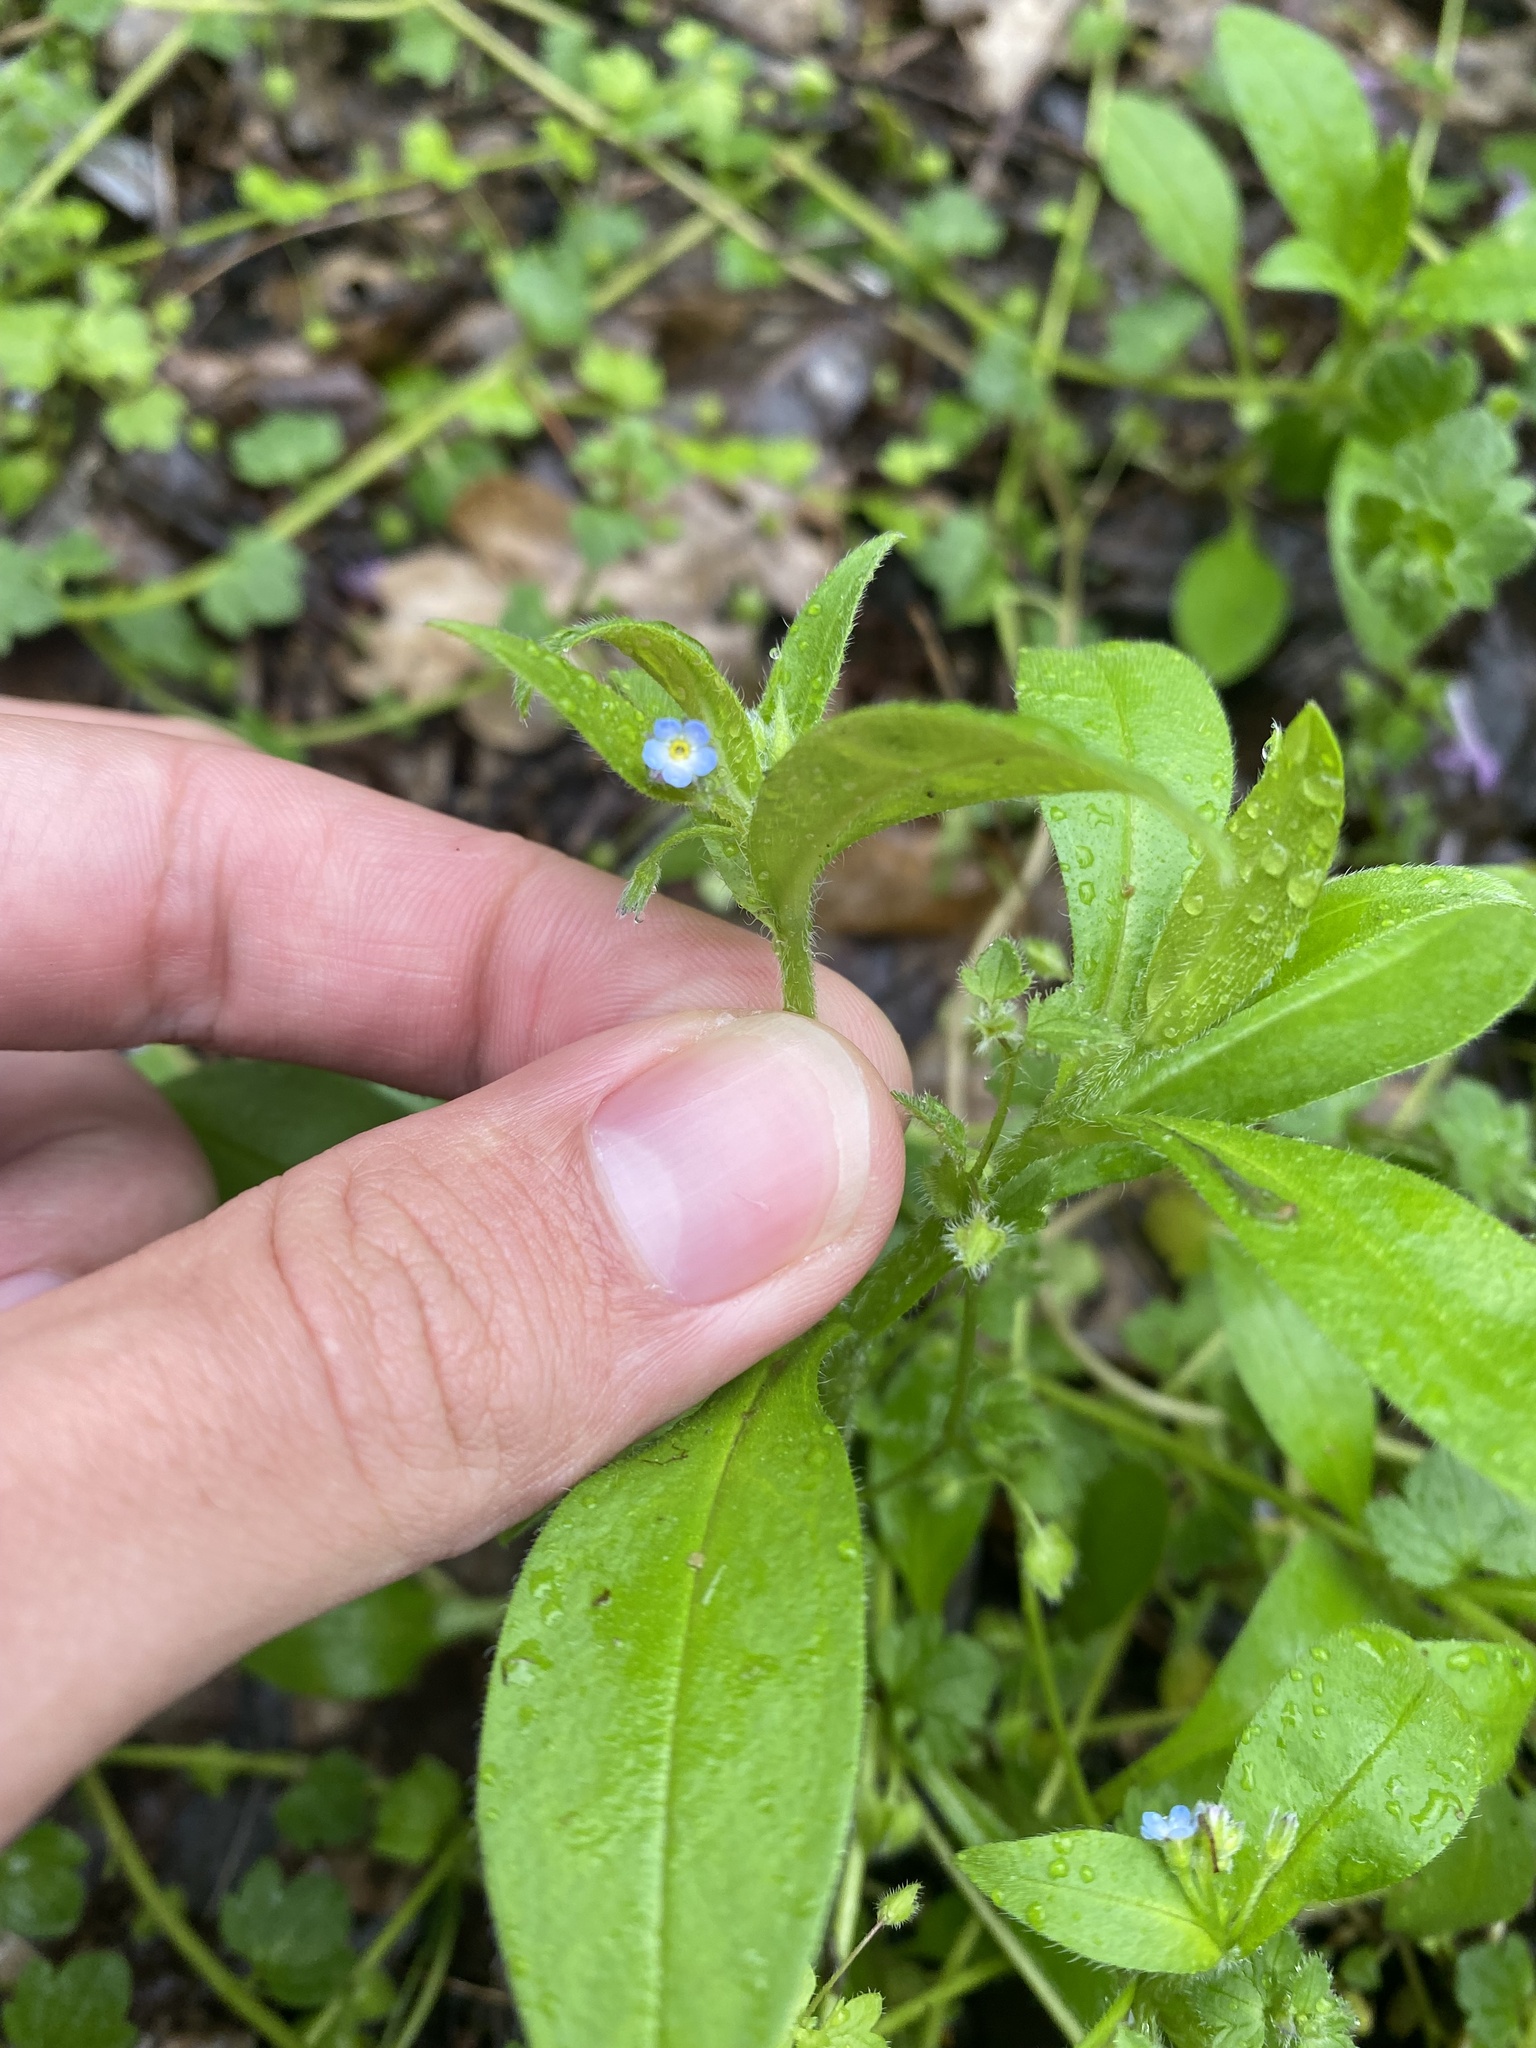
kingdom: Plantae
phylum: Tracheophyta
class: Magnoliopsida
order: Boraginales
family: Boraginaceae
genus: Myosotis
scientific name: Myosotis sparsiflora
